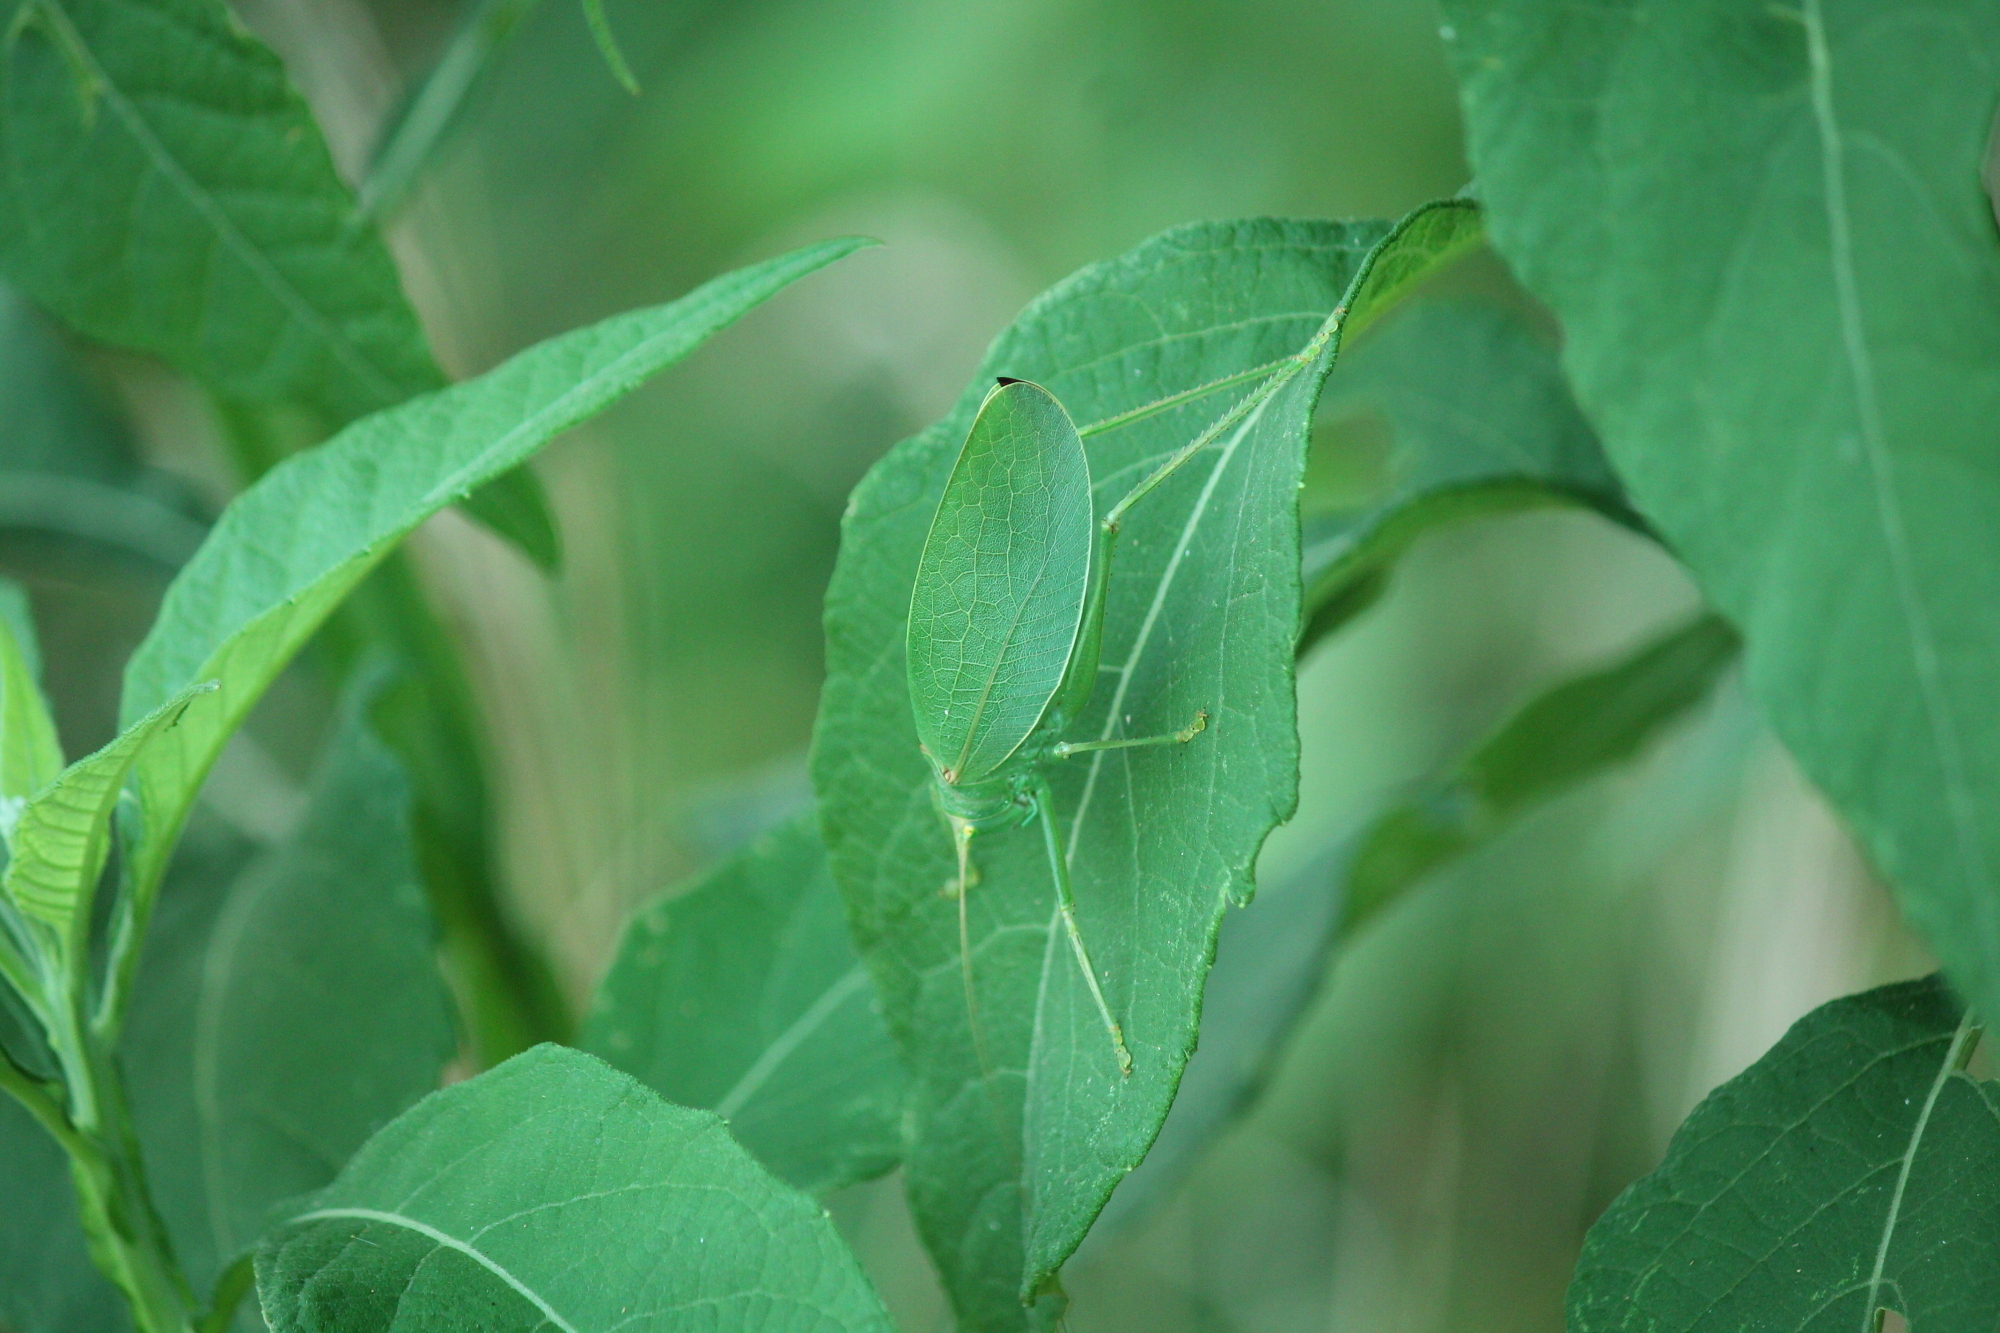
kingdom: Animalia
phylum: Arthropoda
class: Insecta
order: Orthoptera
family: Tettigoniidae
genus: Pterophylla
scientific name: Pterophylla camellifolia
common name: Common true katydid
